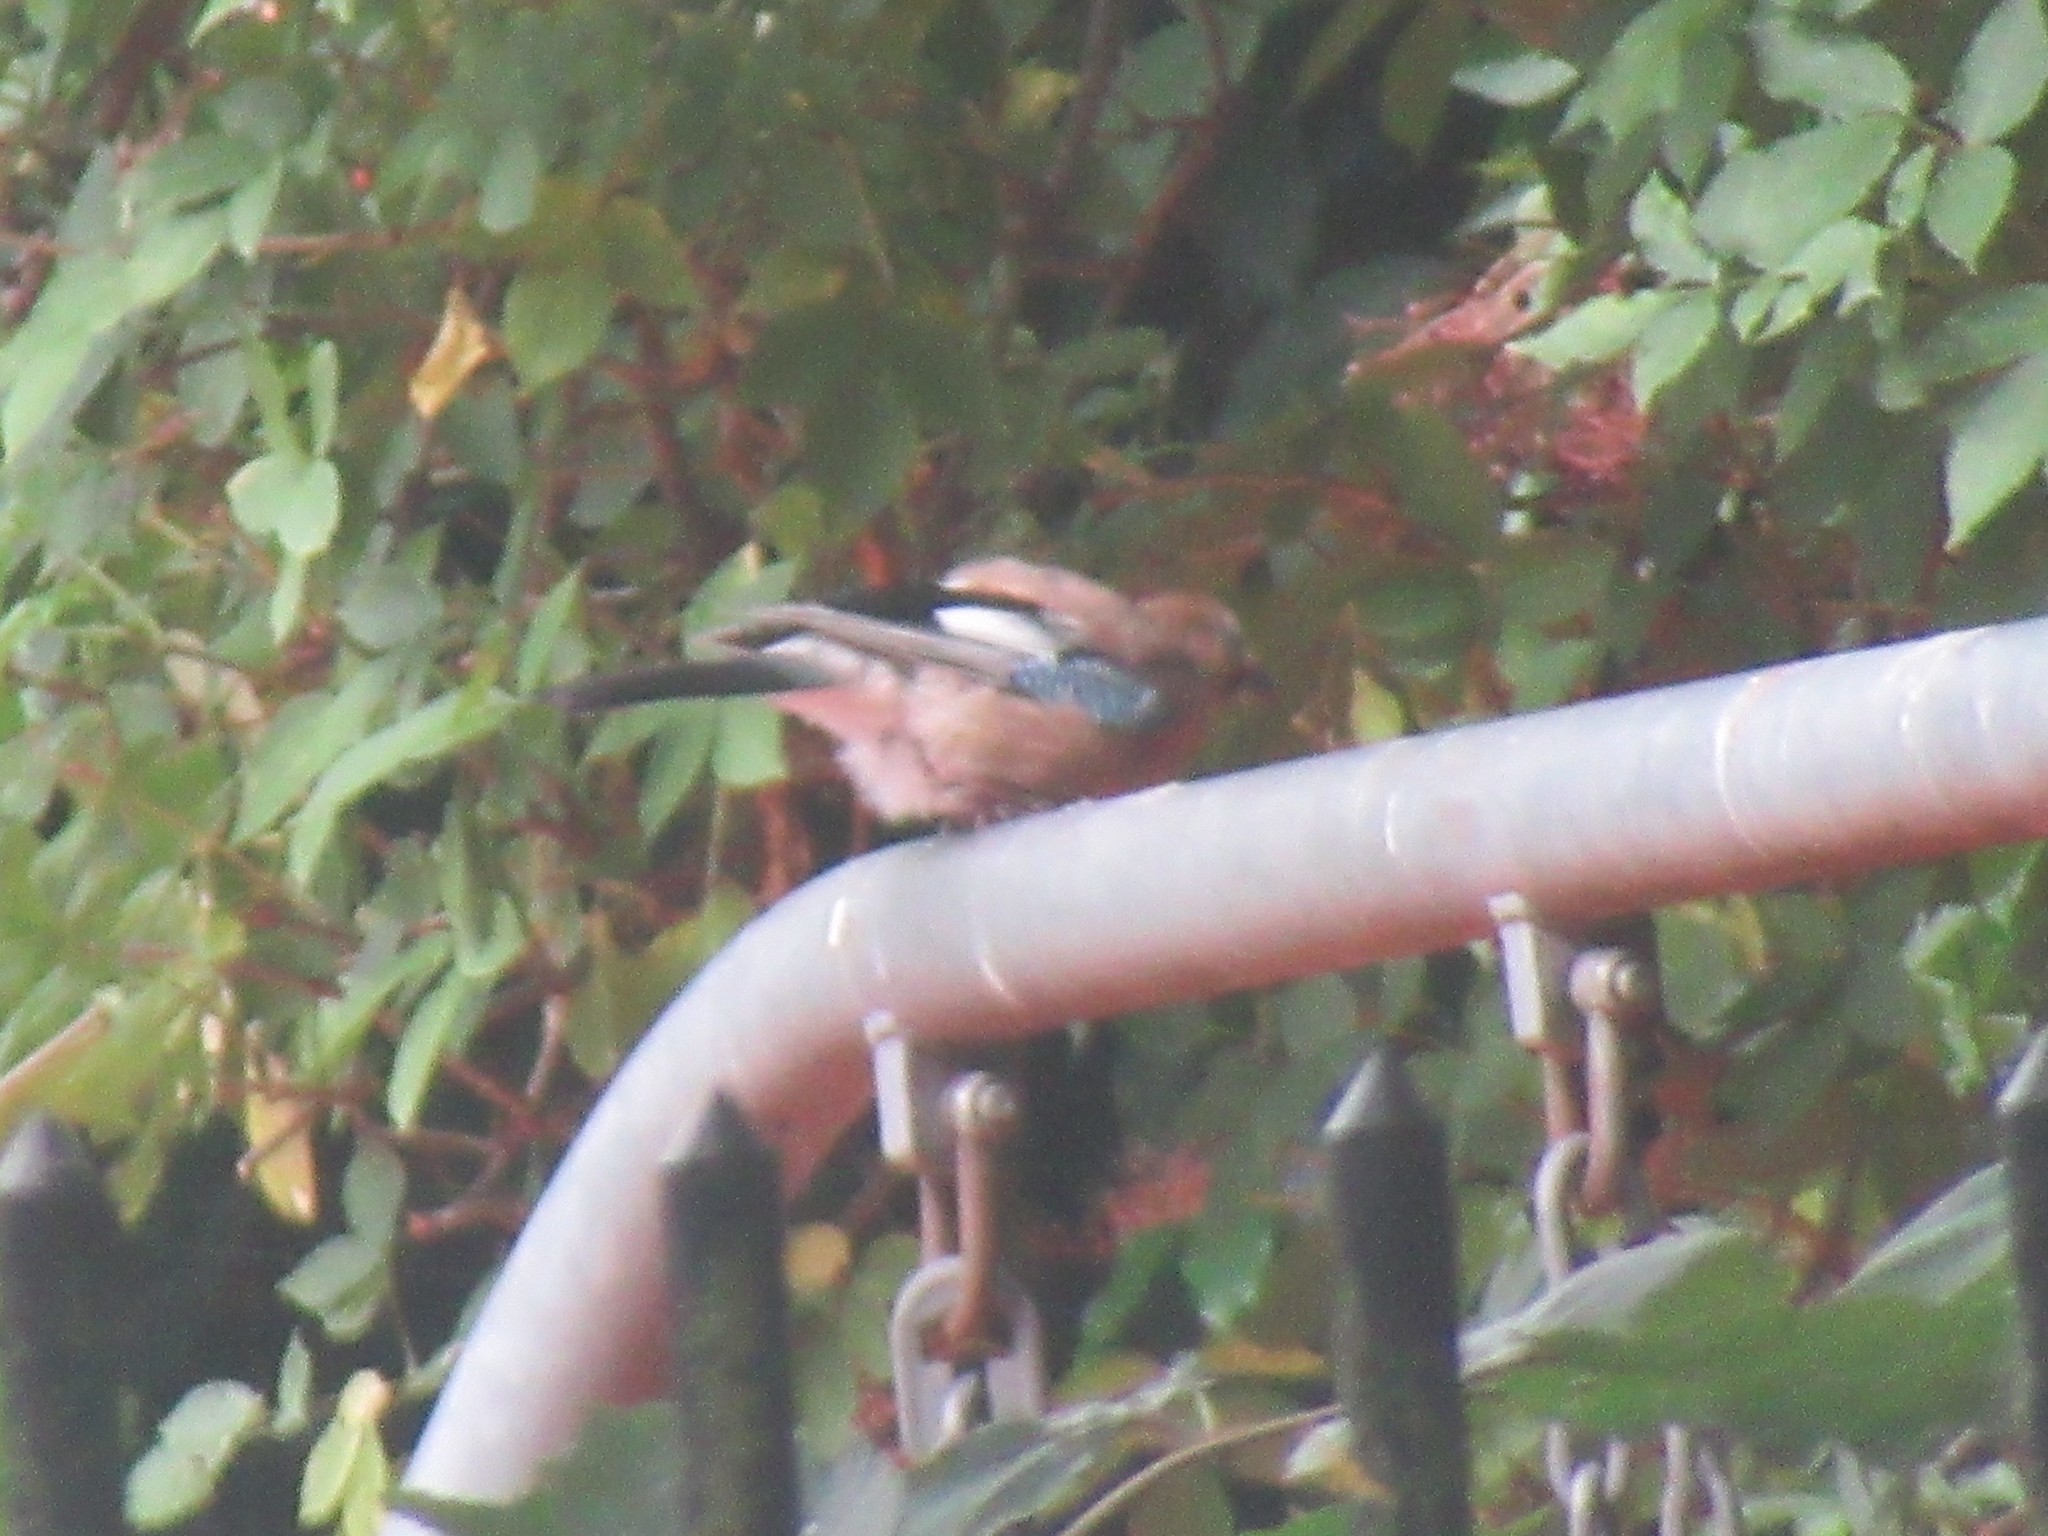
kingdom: Animalia
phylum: Chordata
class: Aves
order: Passeriformes
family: Corvidae
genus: Garrulus
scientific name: Garrulus glandarius
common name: Eurasian jay
